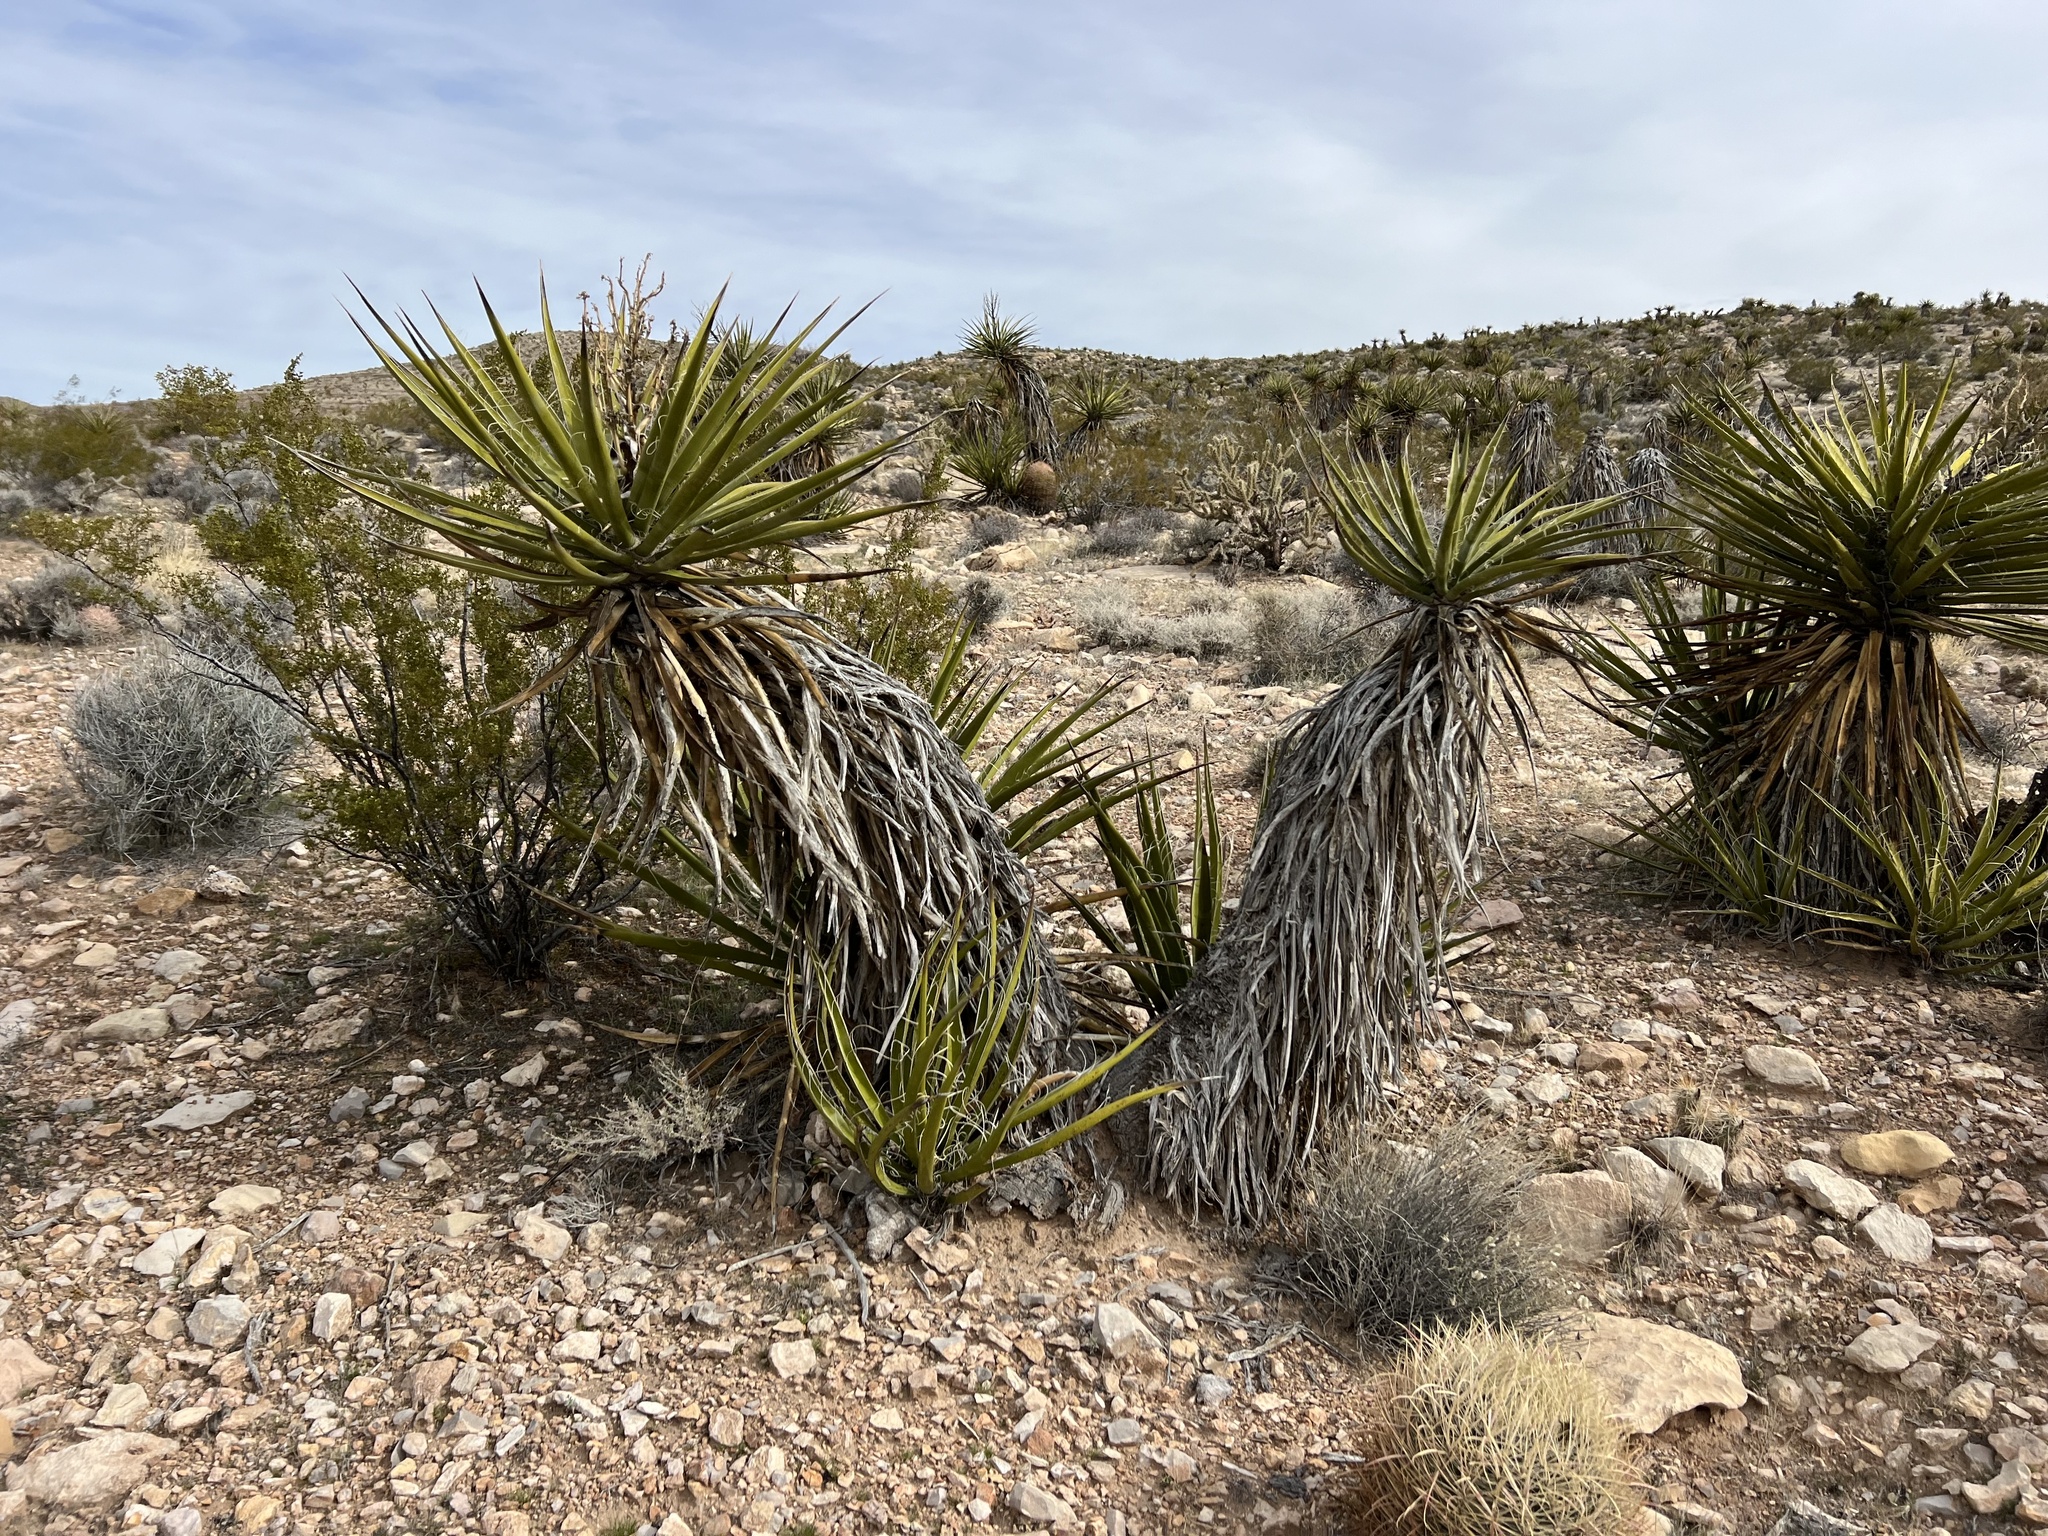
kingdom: Plantae
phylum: Tracheophyta
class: Liliopsida
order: Asparagales
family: Asparagaceae
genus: Yucca
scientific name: Yucca schidigera
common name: Mojave yucca
